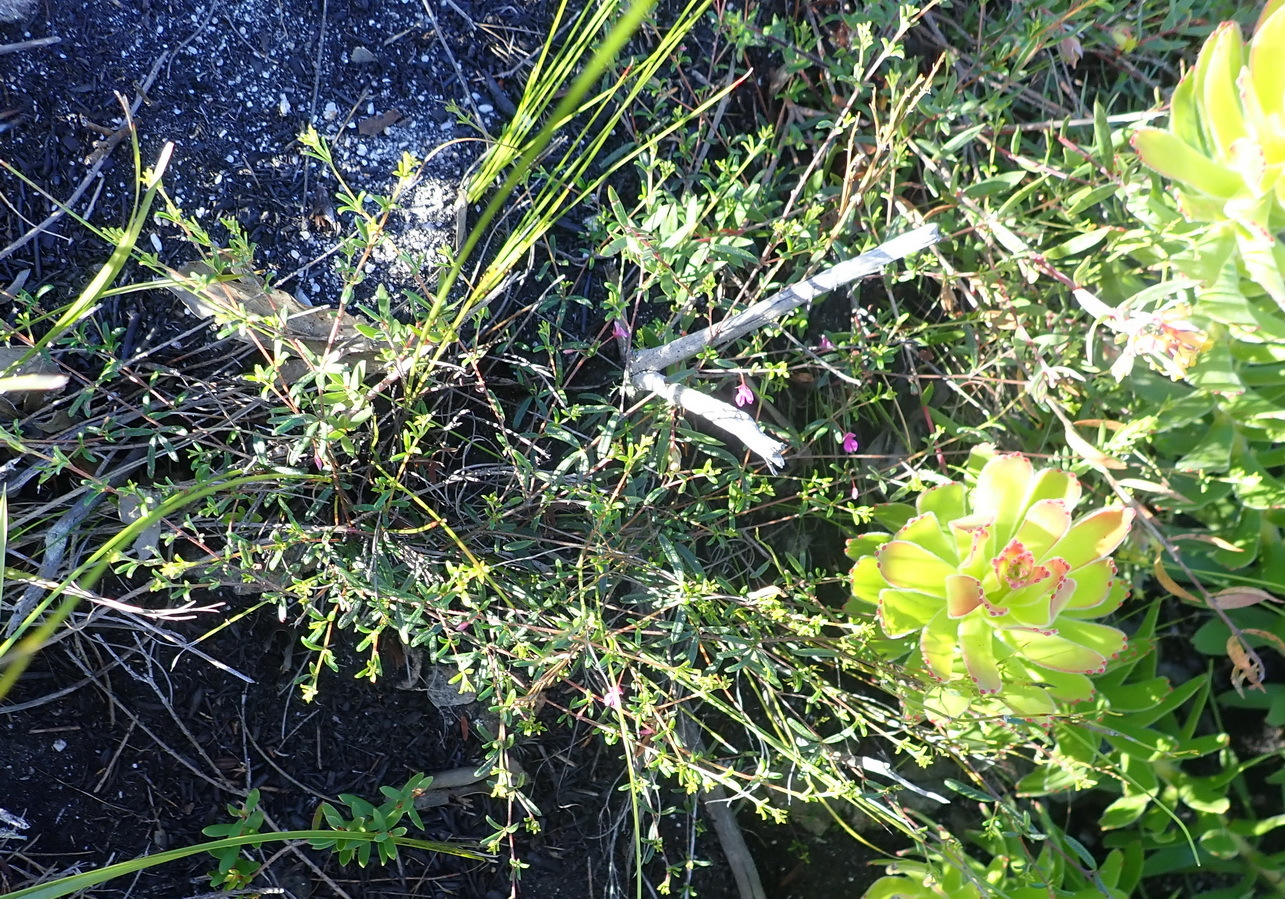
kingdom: Plantae
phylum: Tracheophyta
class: Magnoliopsida
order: Fabales
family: Fabaceae
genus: Indigofera
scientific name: Indigofera setosa
